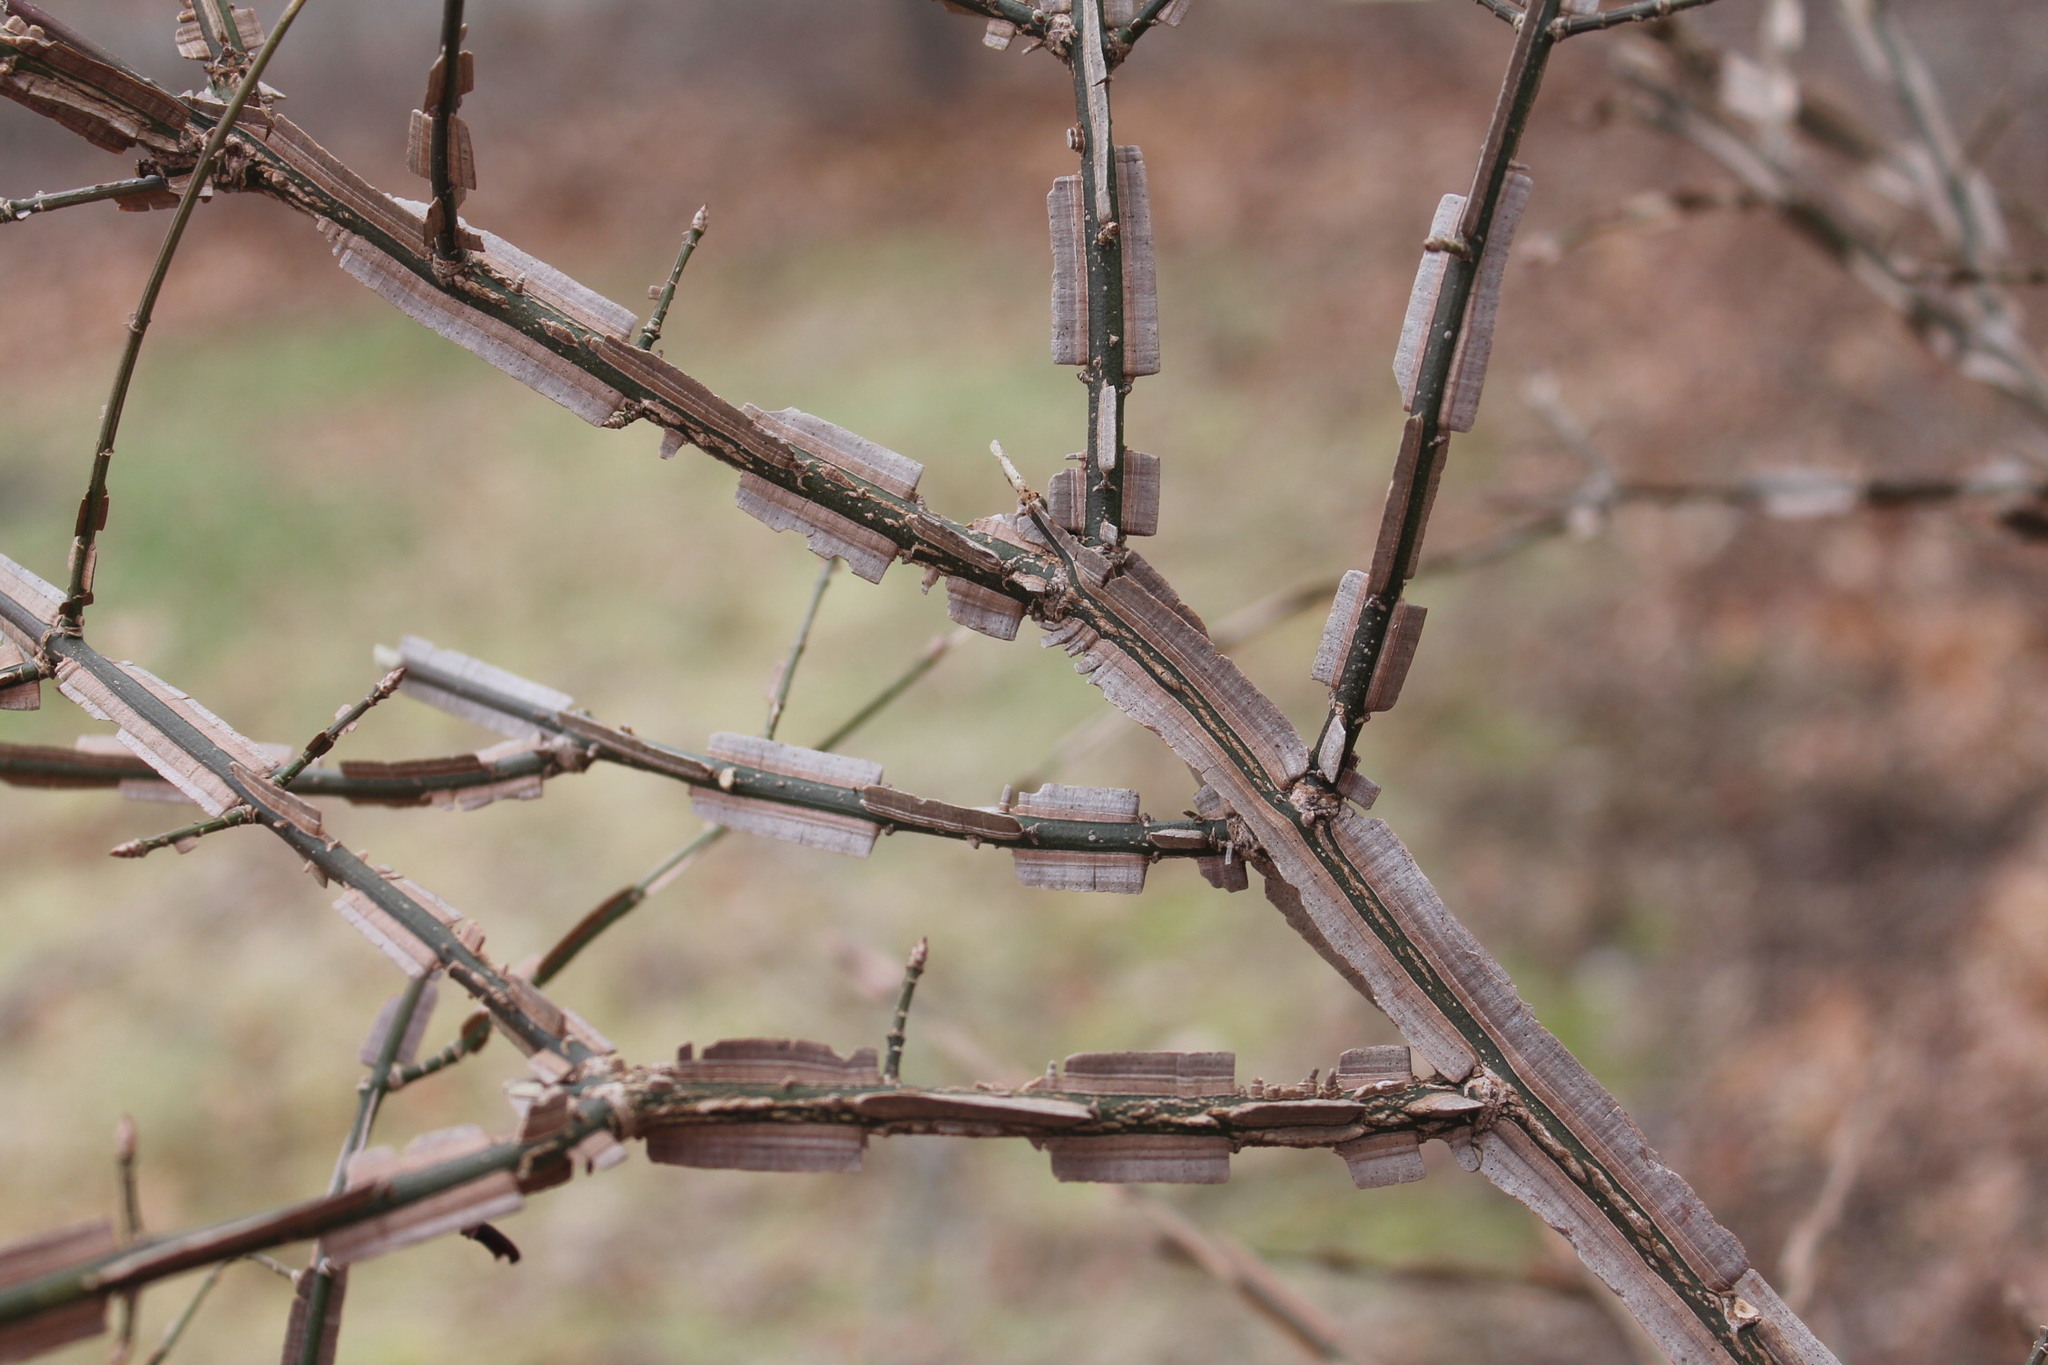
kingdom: Plantae
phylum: Tracheophyta
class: Magnoliopsida
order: Celastrales
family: Celastraceae
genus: Euonymus
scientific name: Euonymus alatus
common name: Winged euonymus
